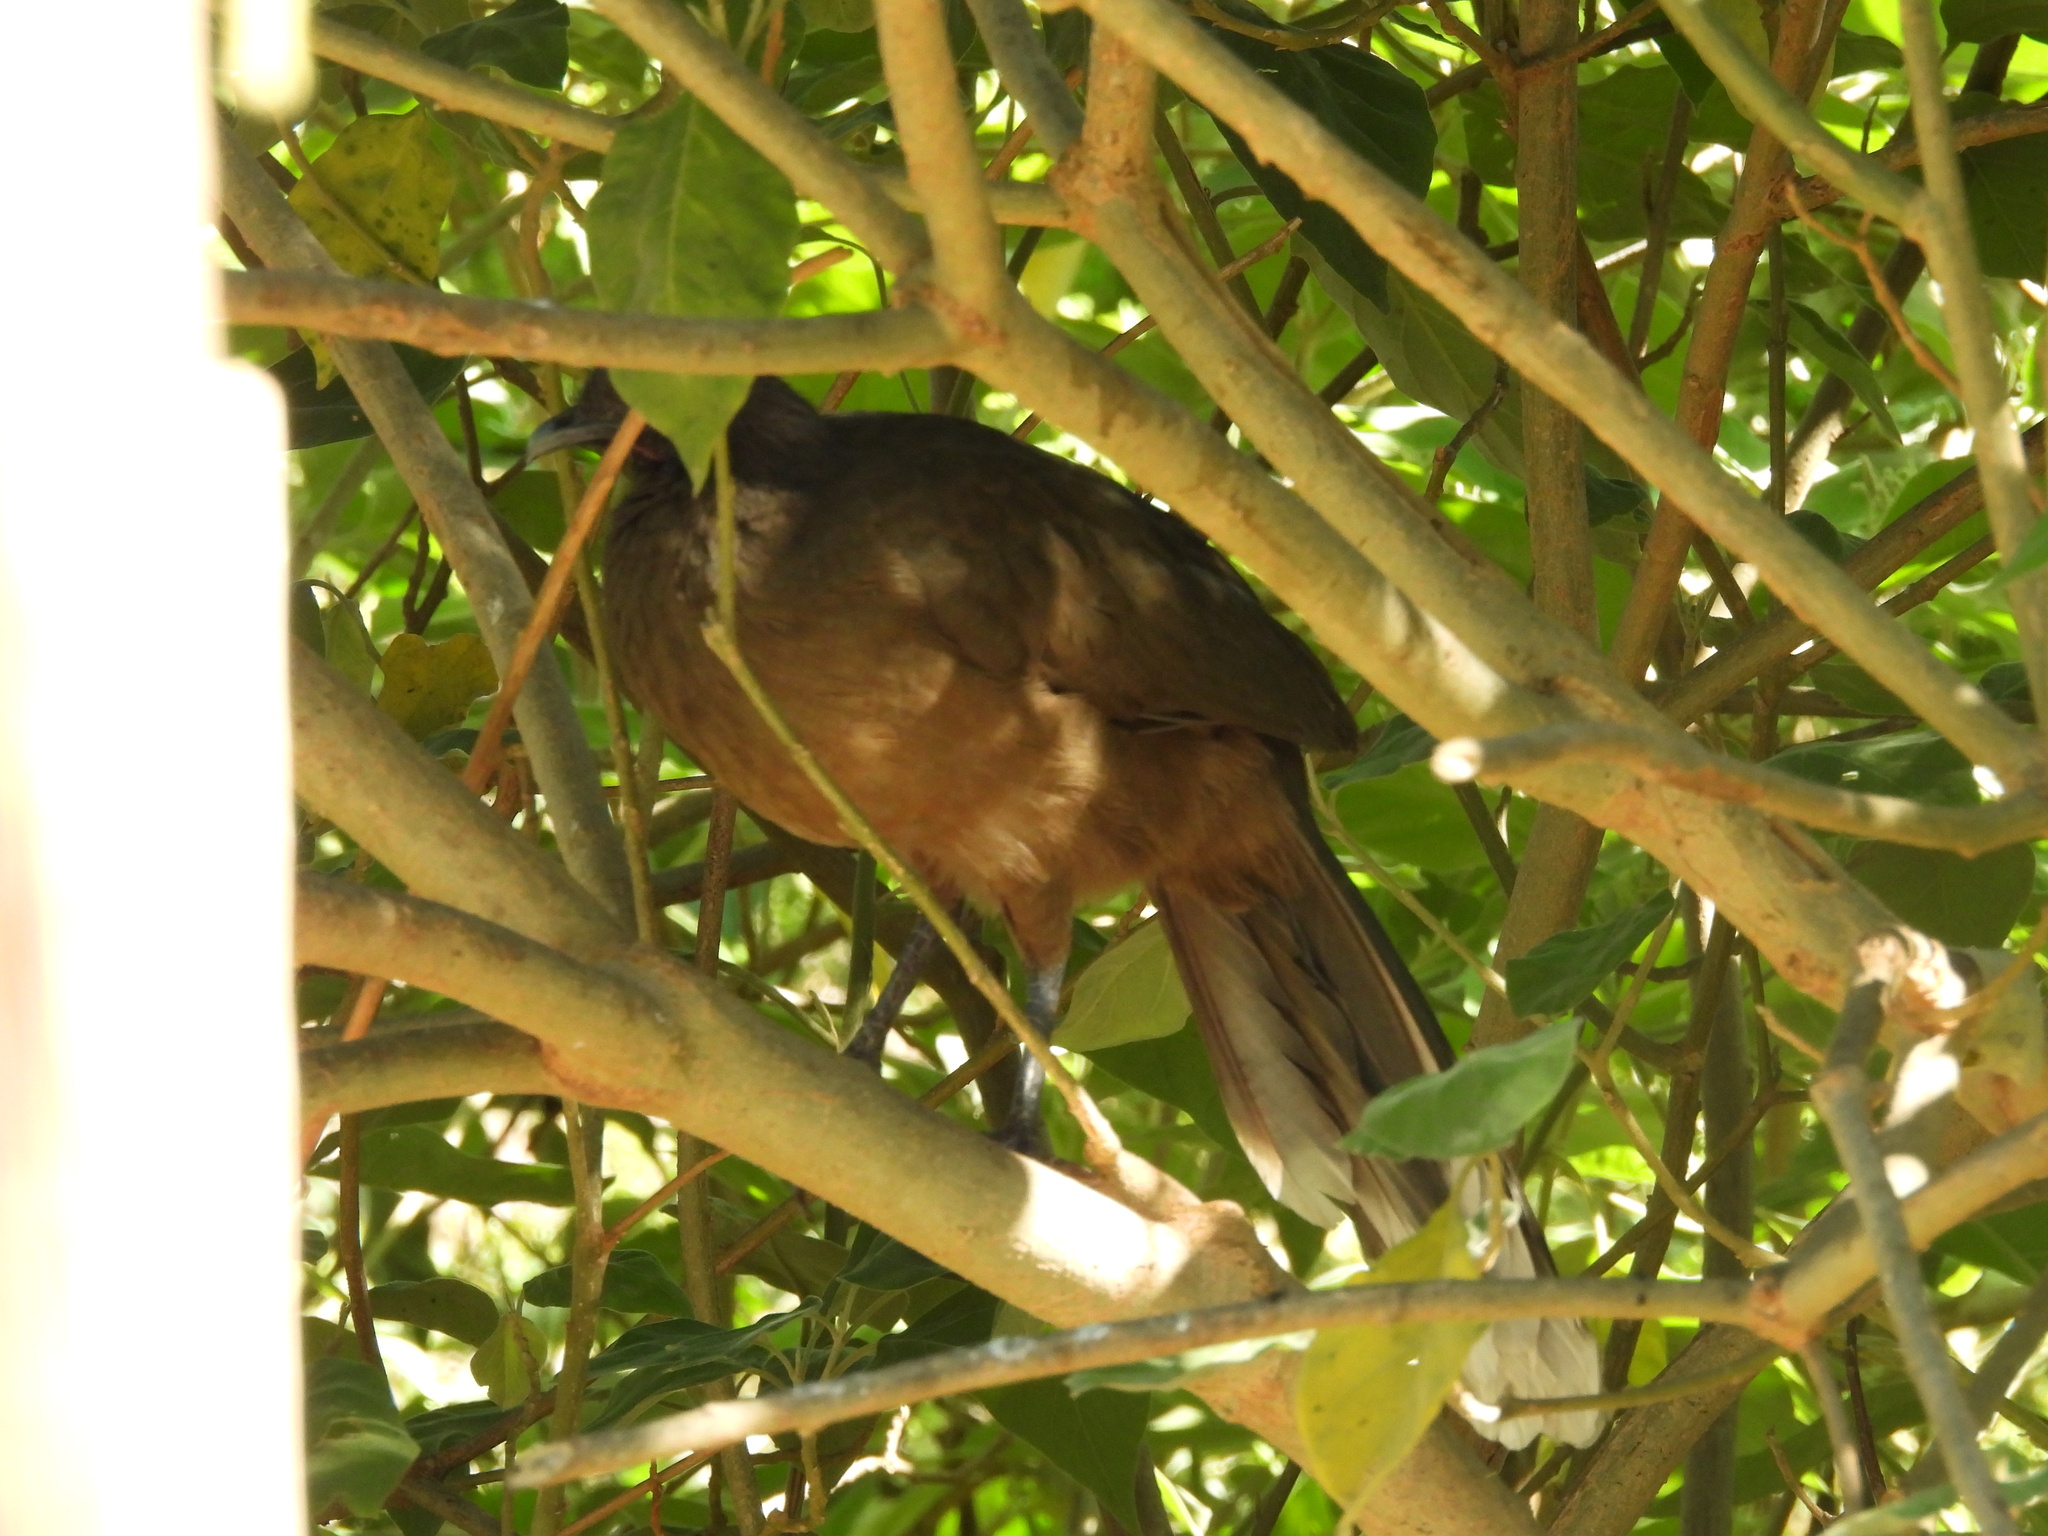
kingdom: Animalia
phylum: Chordata
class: Aves
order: Galliformes
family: Cracidae
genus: Ortalis
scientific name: Ortalis vetula
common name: Plain chachalaca
